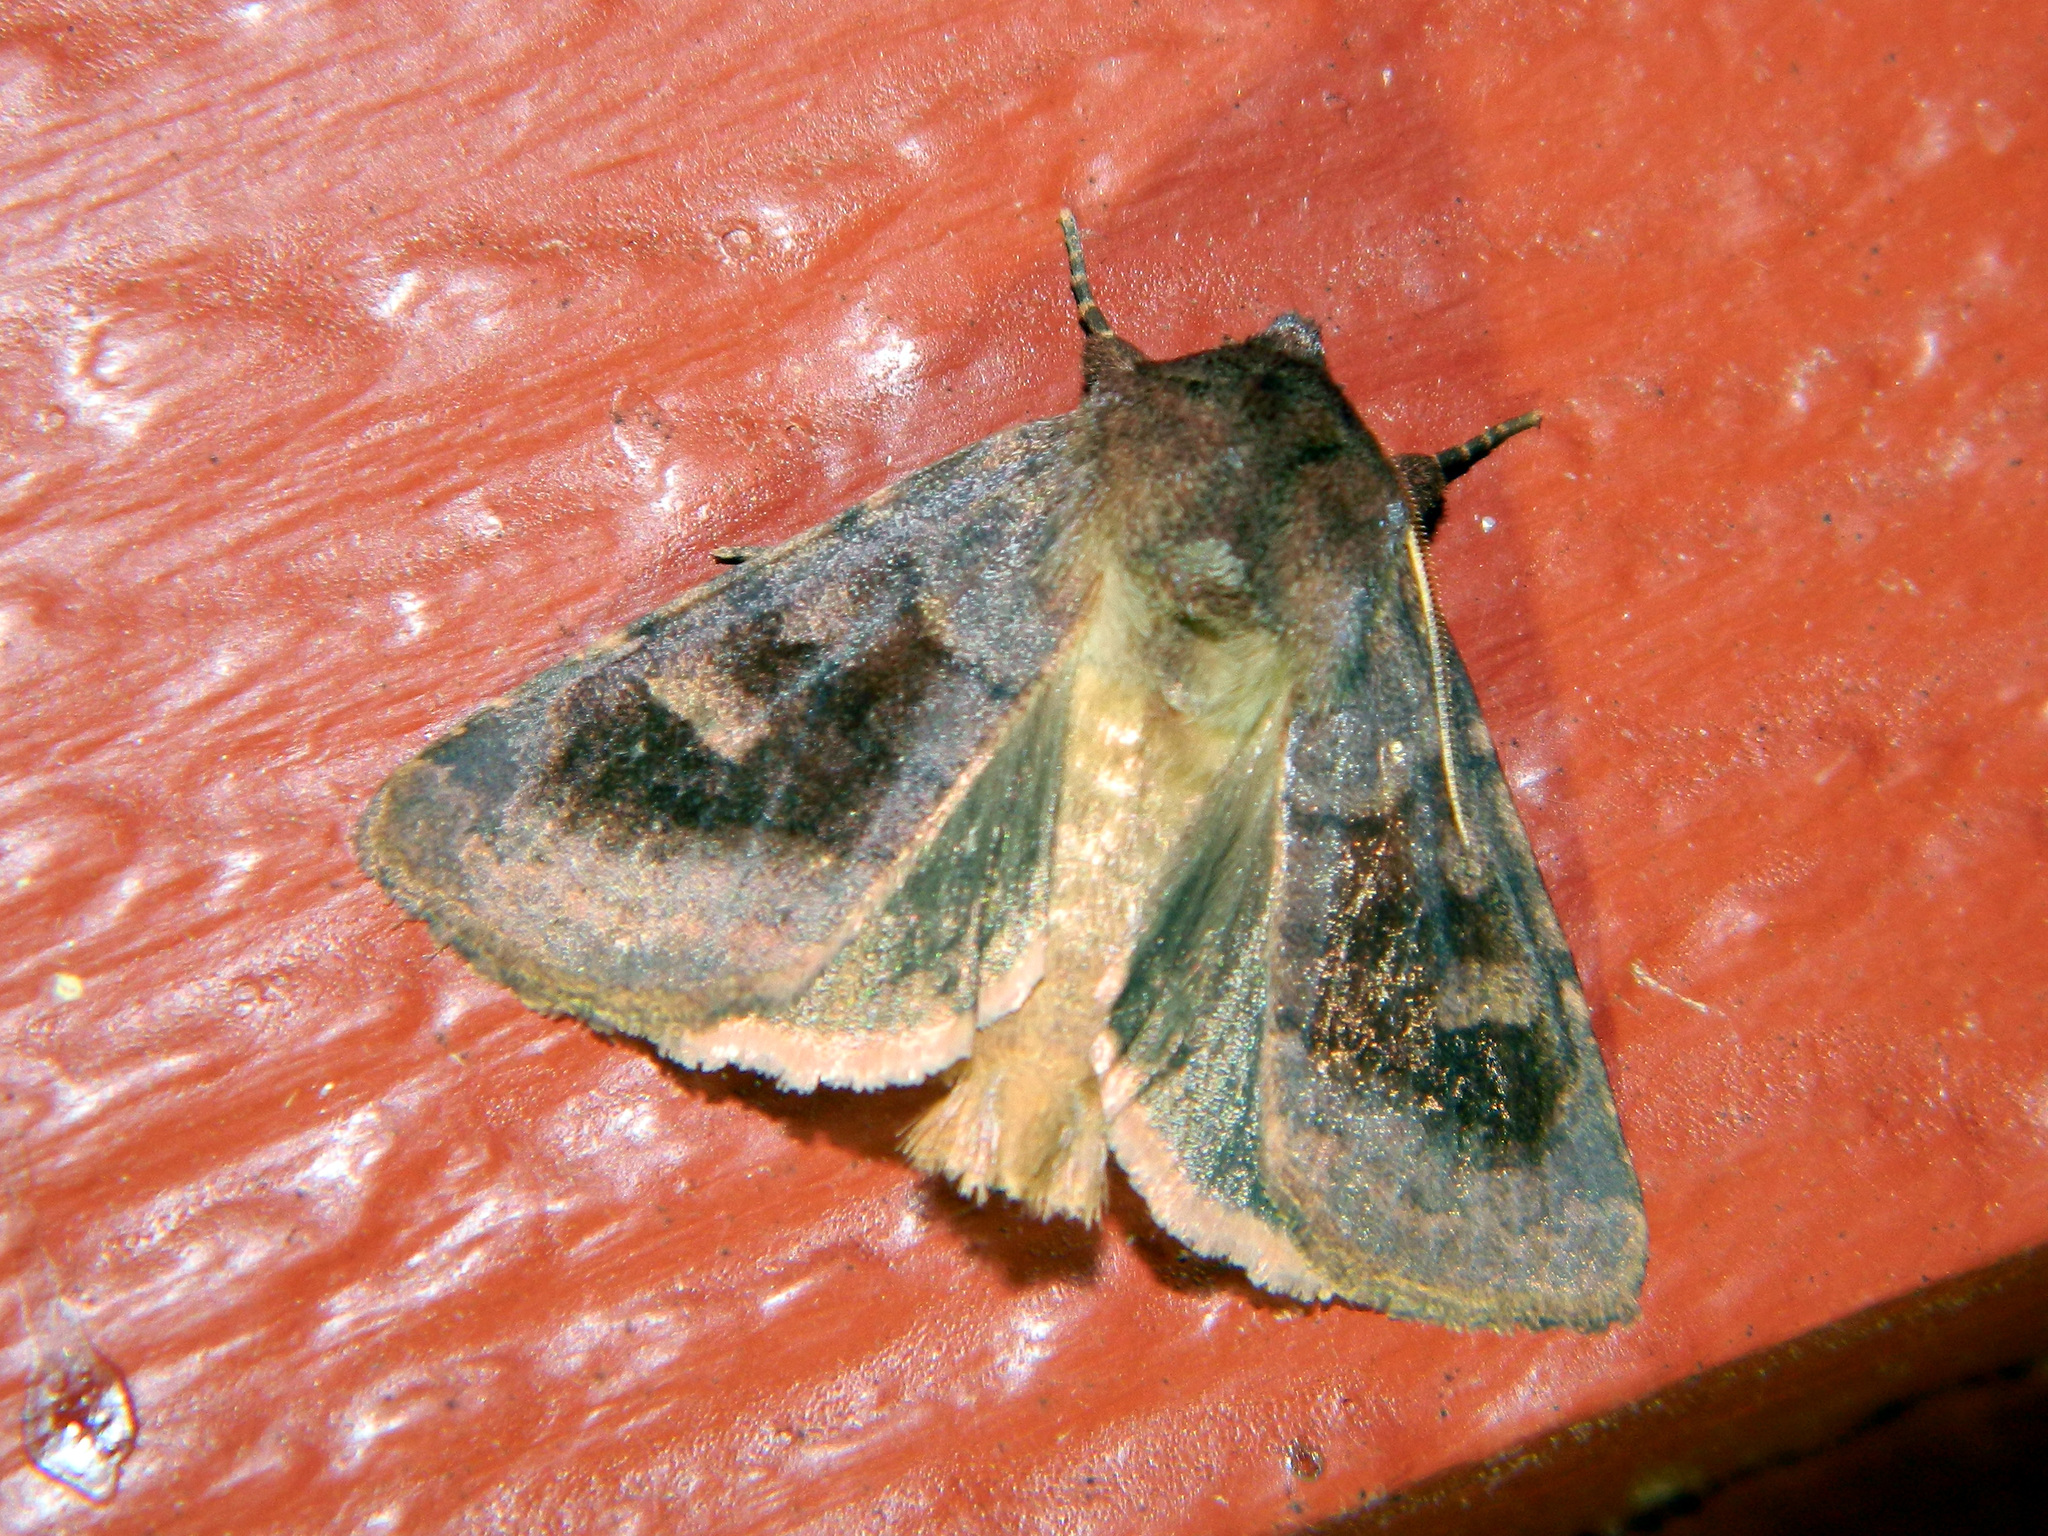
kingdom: Animalia
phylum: Arthropoda
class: Insecta
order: Lepidoptera
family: Noctuidae
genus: Nephelodes
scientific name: Nephelodes minians
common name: Bronzed cutworm
